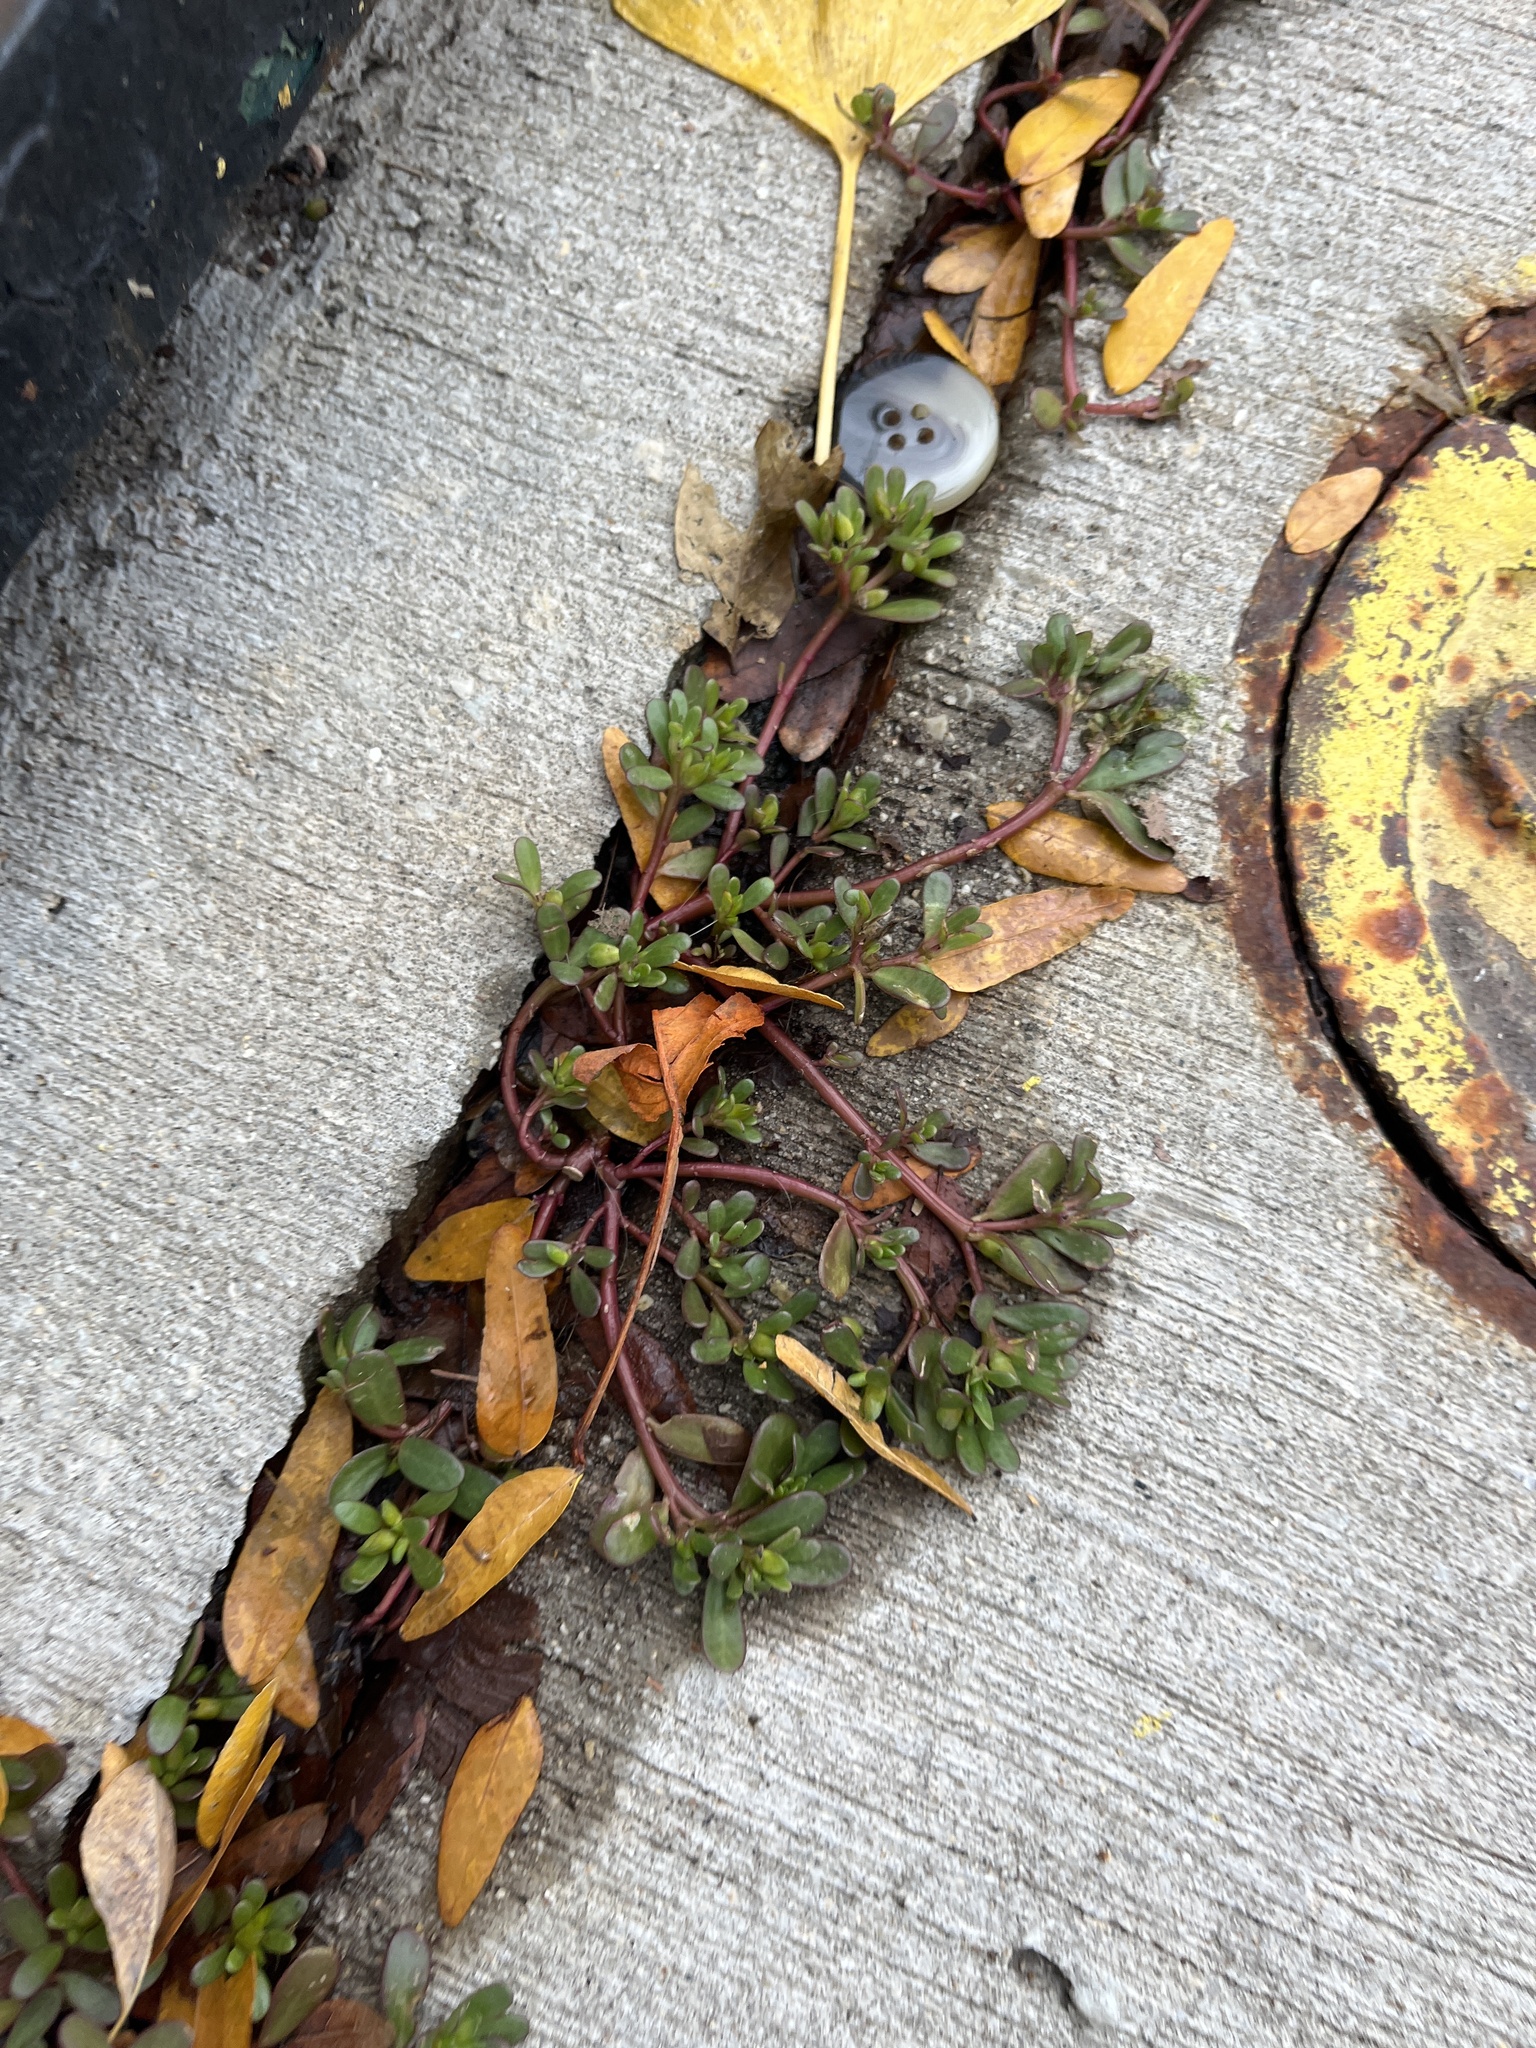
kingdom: Plantae
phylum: Tracheophyta
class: Magnoliopsida
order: Caryophyllales
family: Portulacaceae
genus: Portulaca
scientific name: Portulaca oleracea
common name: Common purslane
